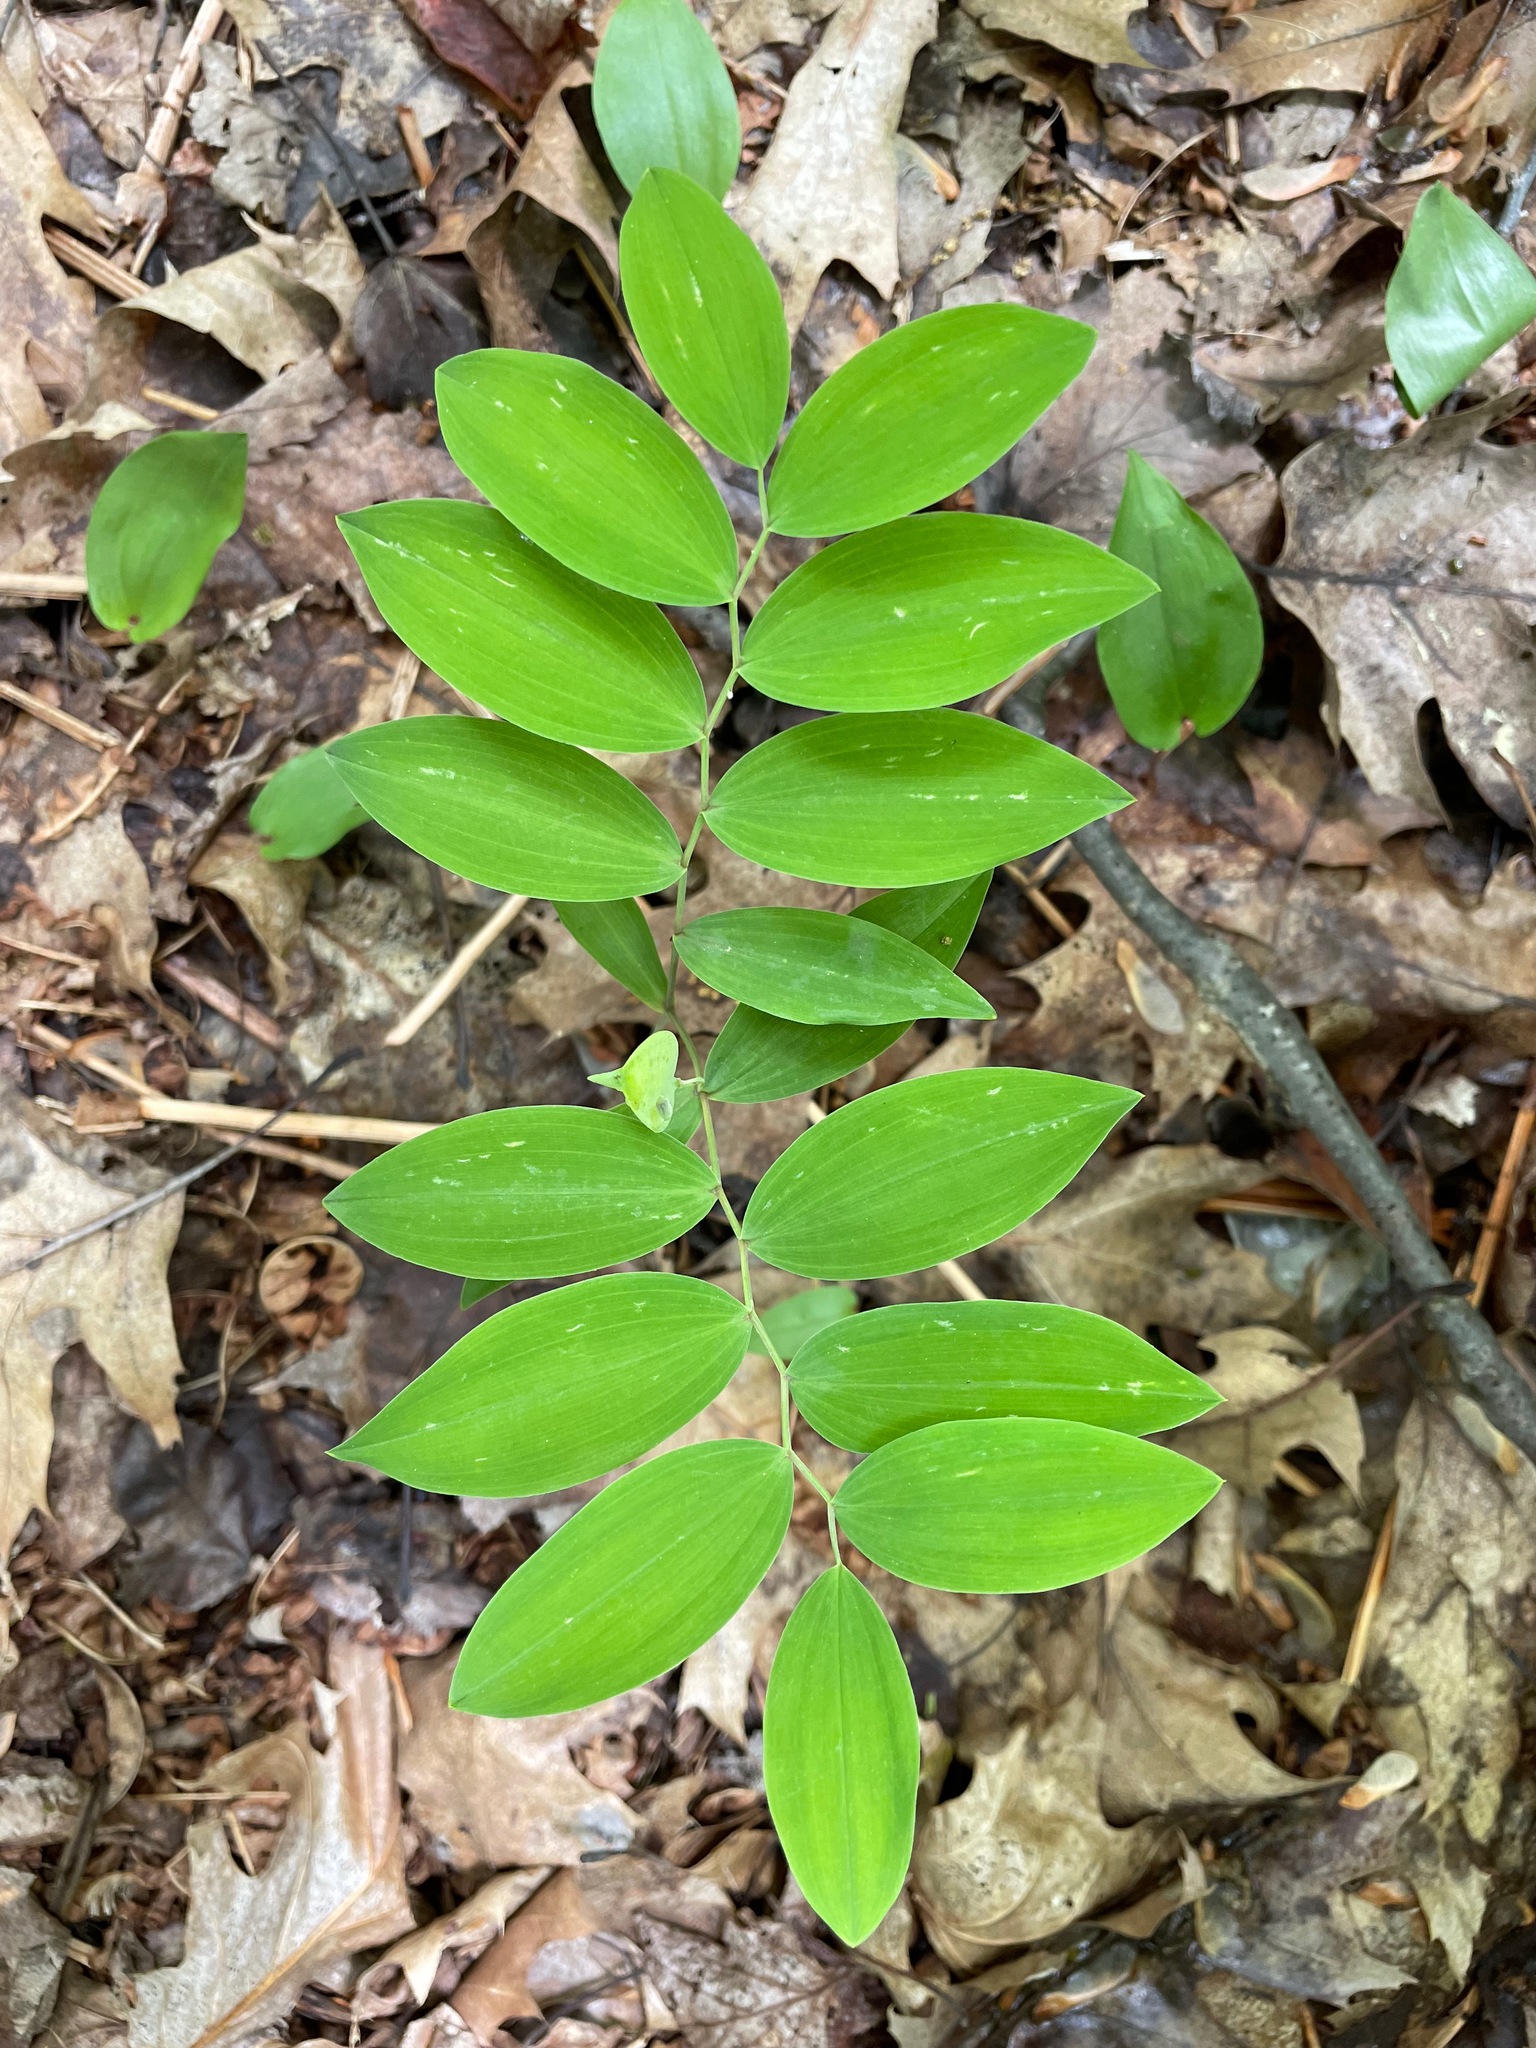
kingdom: Plantae
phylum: Tracheophyta
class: Liliopsida
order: Liliales
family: Colchicaceae
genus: Uvularia
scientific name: Uvularia sessilifolia
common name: Straw-lily
